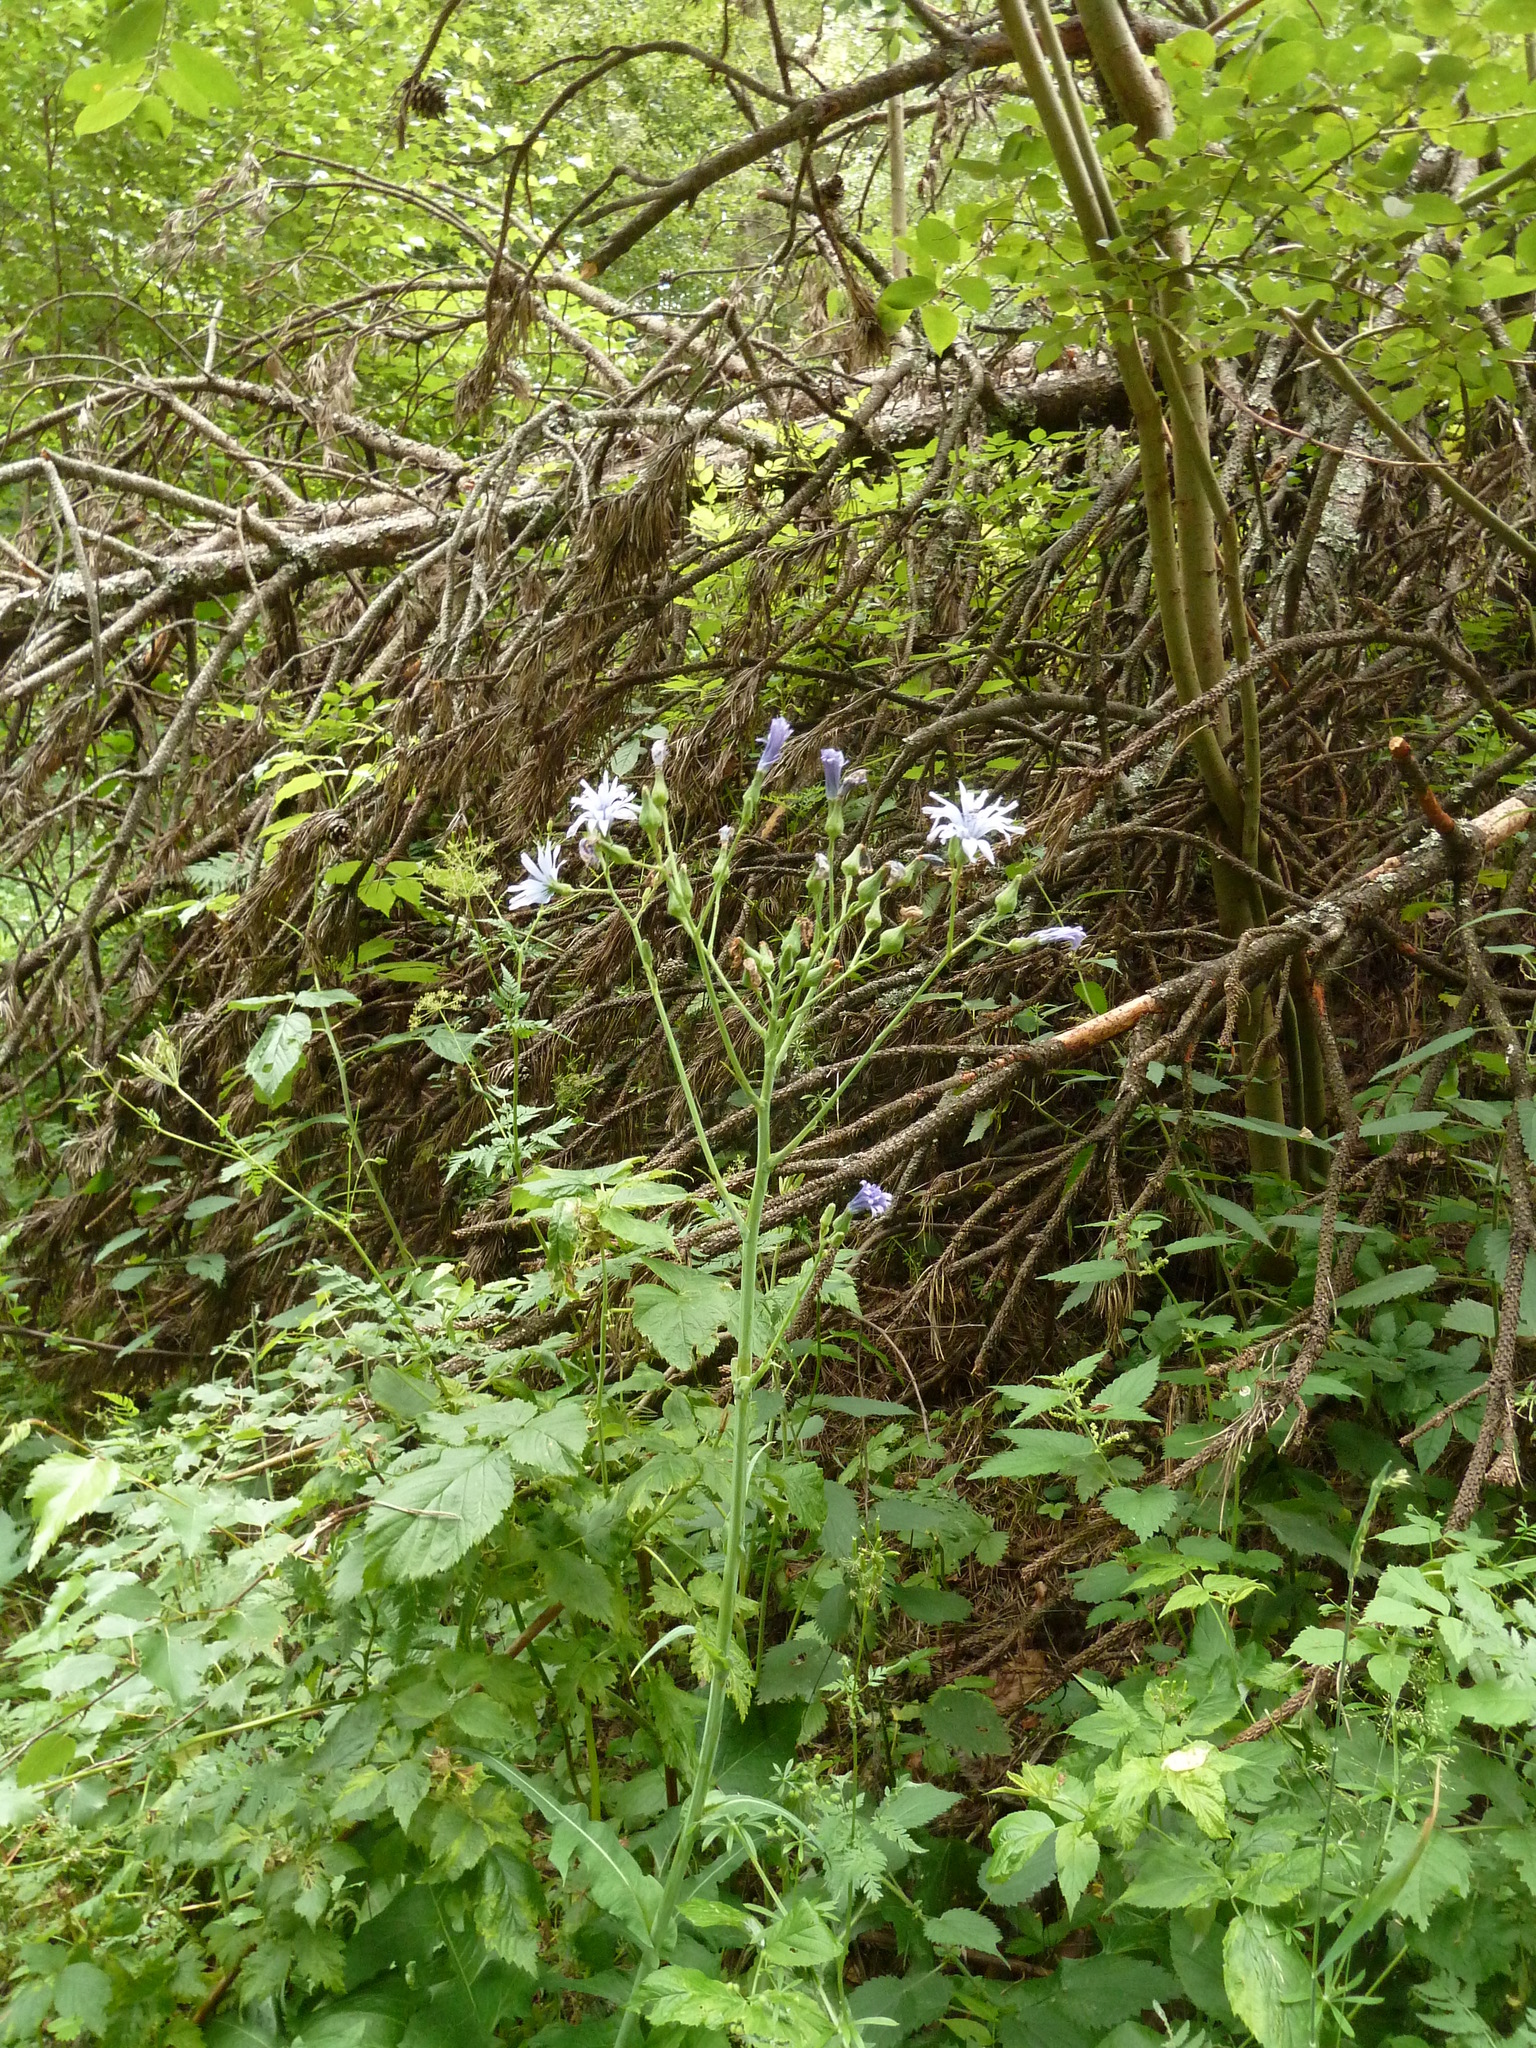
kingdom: Plantae
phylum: Tracheophyta
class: Magnoliopsida
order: Asterales
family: Asteraceae
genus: Lactuca
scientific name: Lactuca plumieri
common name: Hairless blue-sow-thistle
